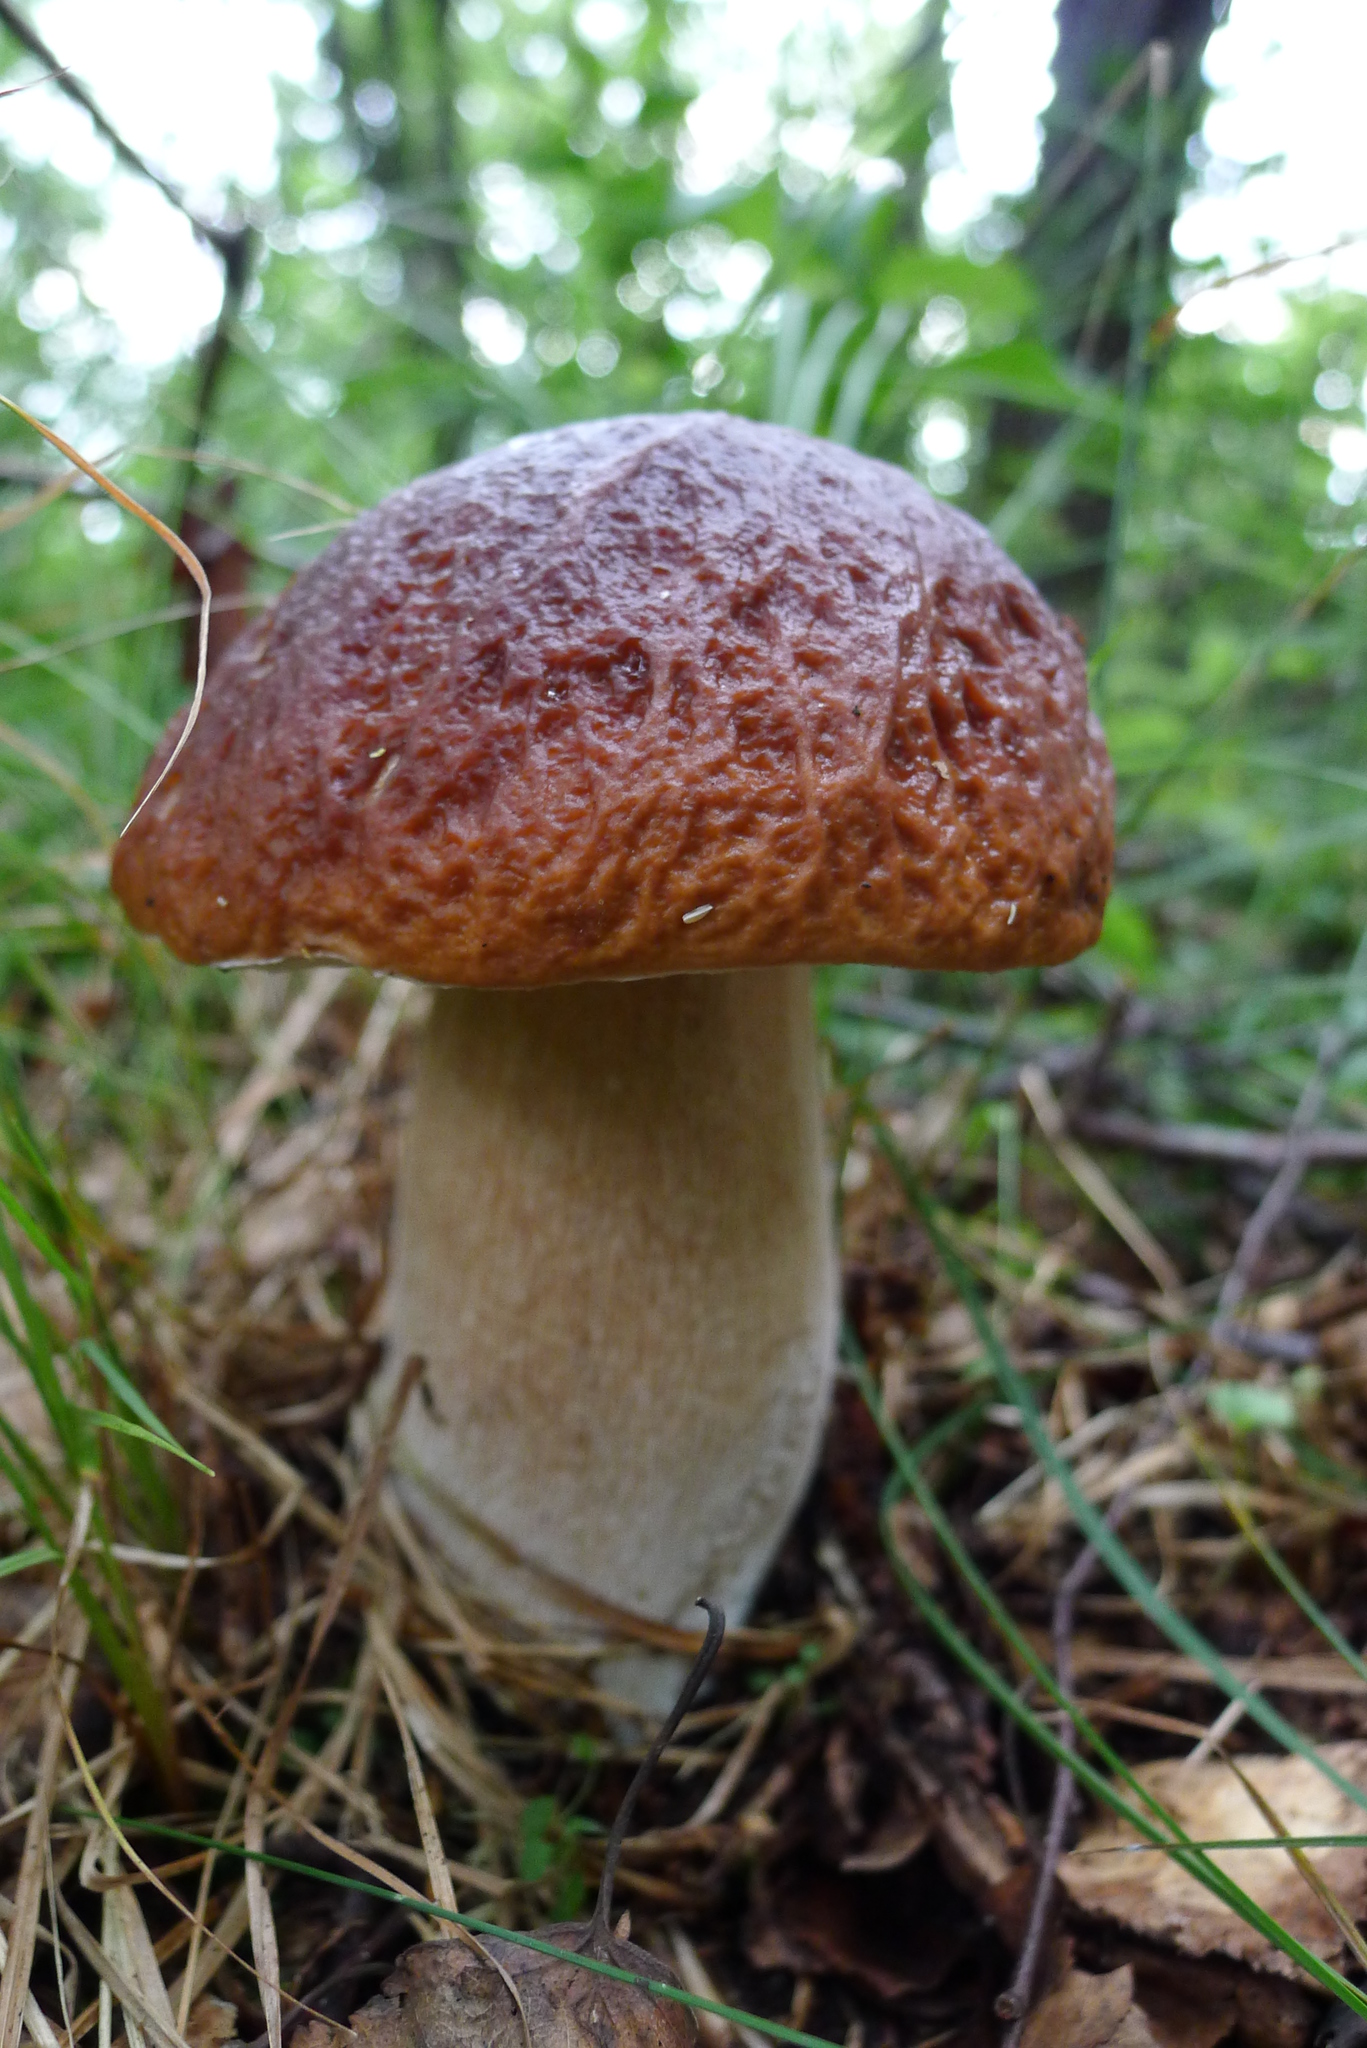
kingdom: Fungi
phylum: Basidiomycota
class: Agaricomycetes
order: Boletales
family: Boletaceae
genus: Boletus
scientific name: Boletus edulis
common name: Cep
